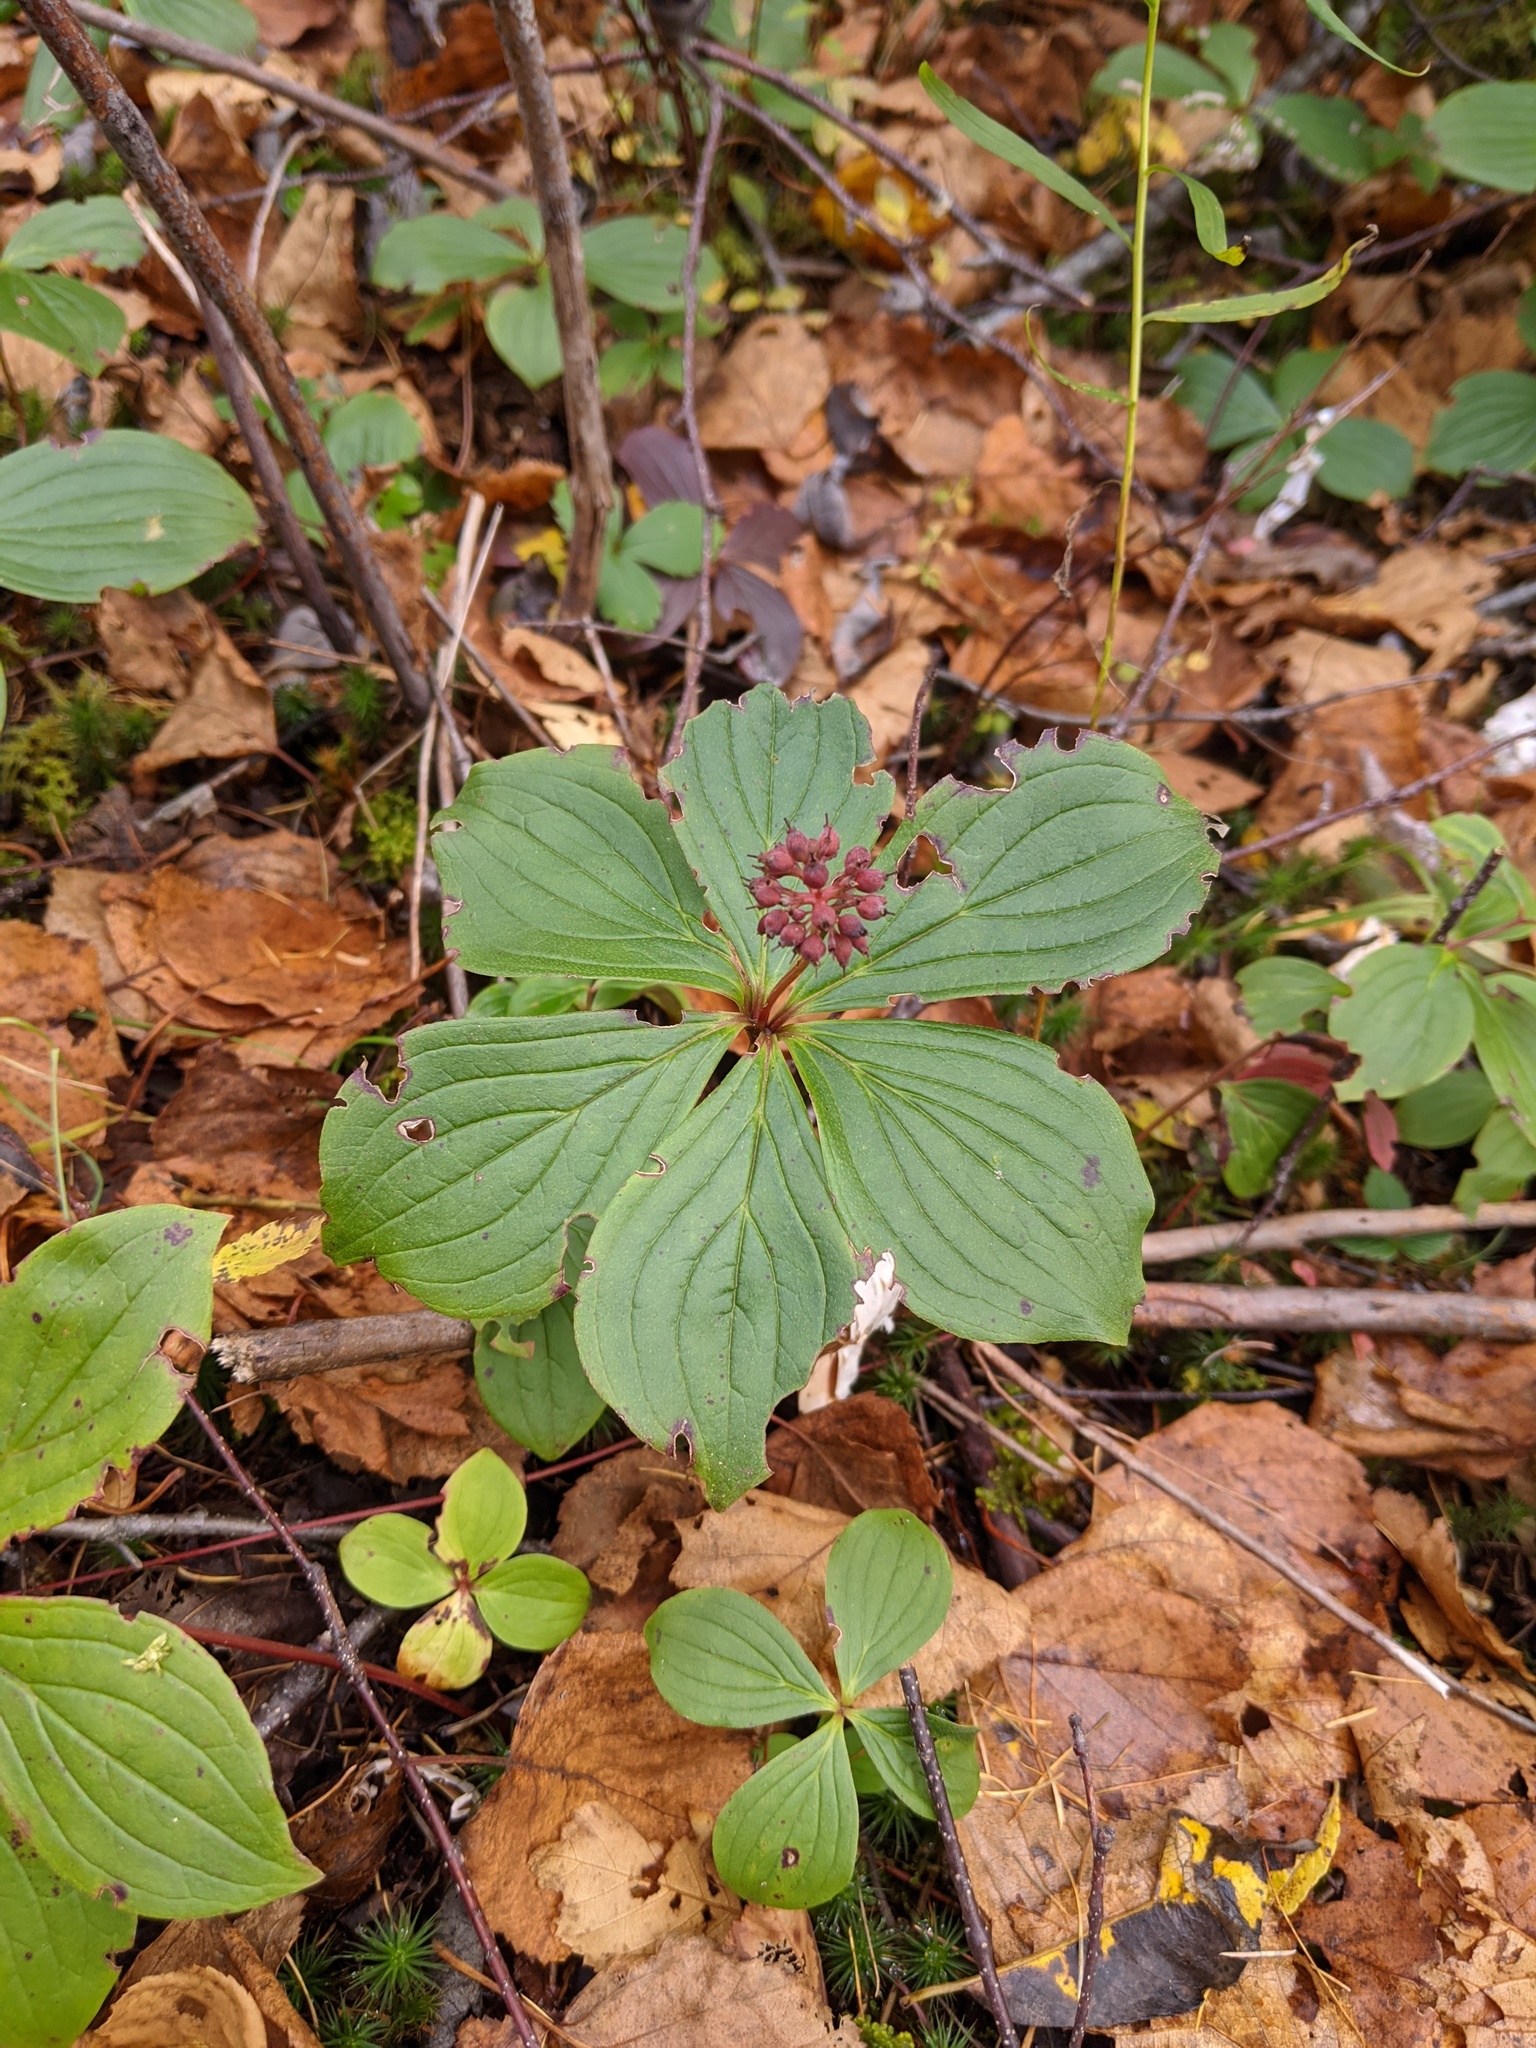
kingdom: Plantae
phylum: Tracheophyta
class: Magnoliopsida
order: Cornales
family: Cornaceae
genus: Cornus
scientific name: Cornus canadensis
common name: Creeping dogwood
